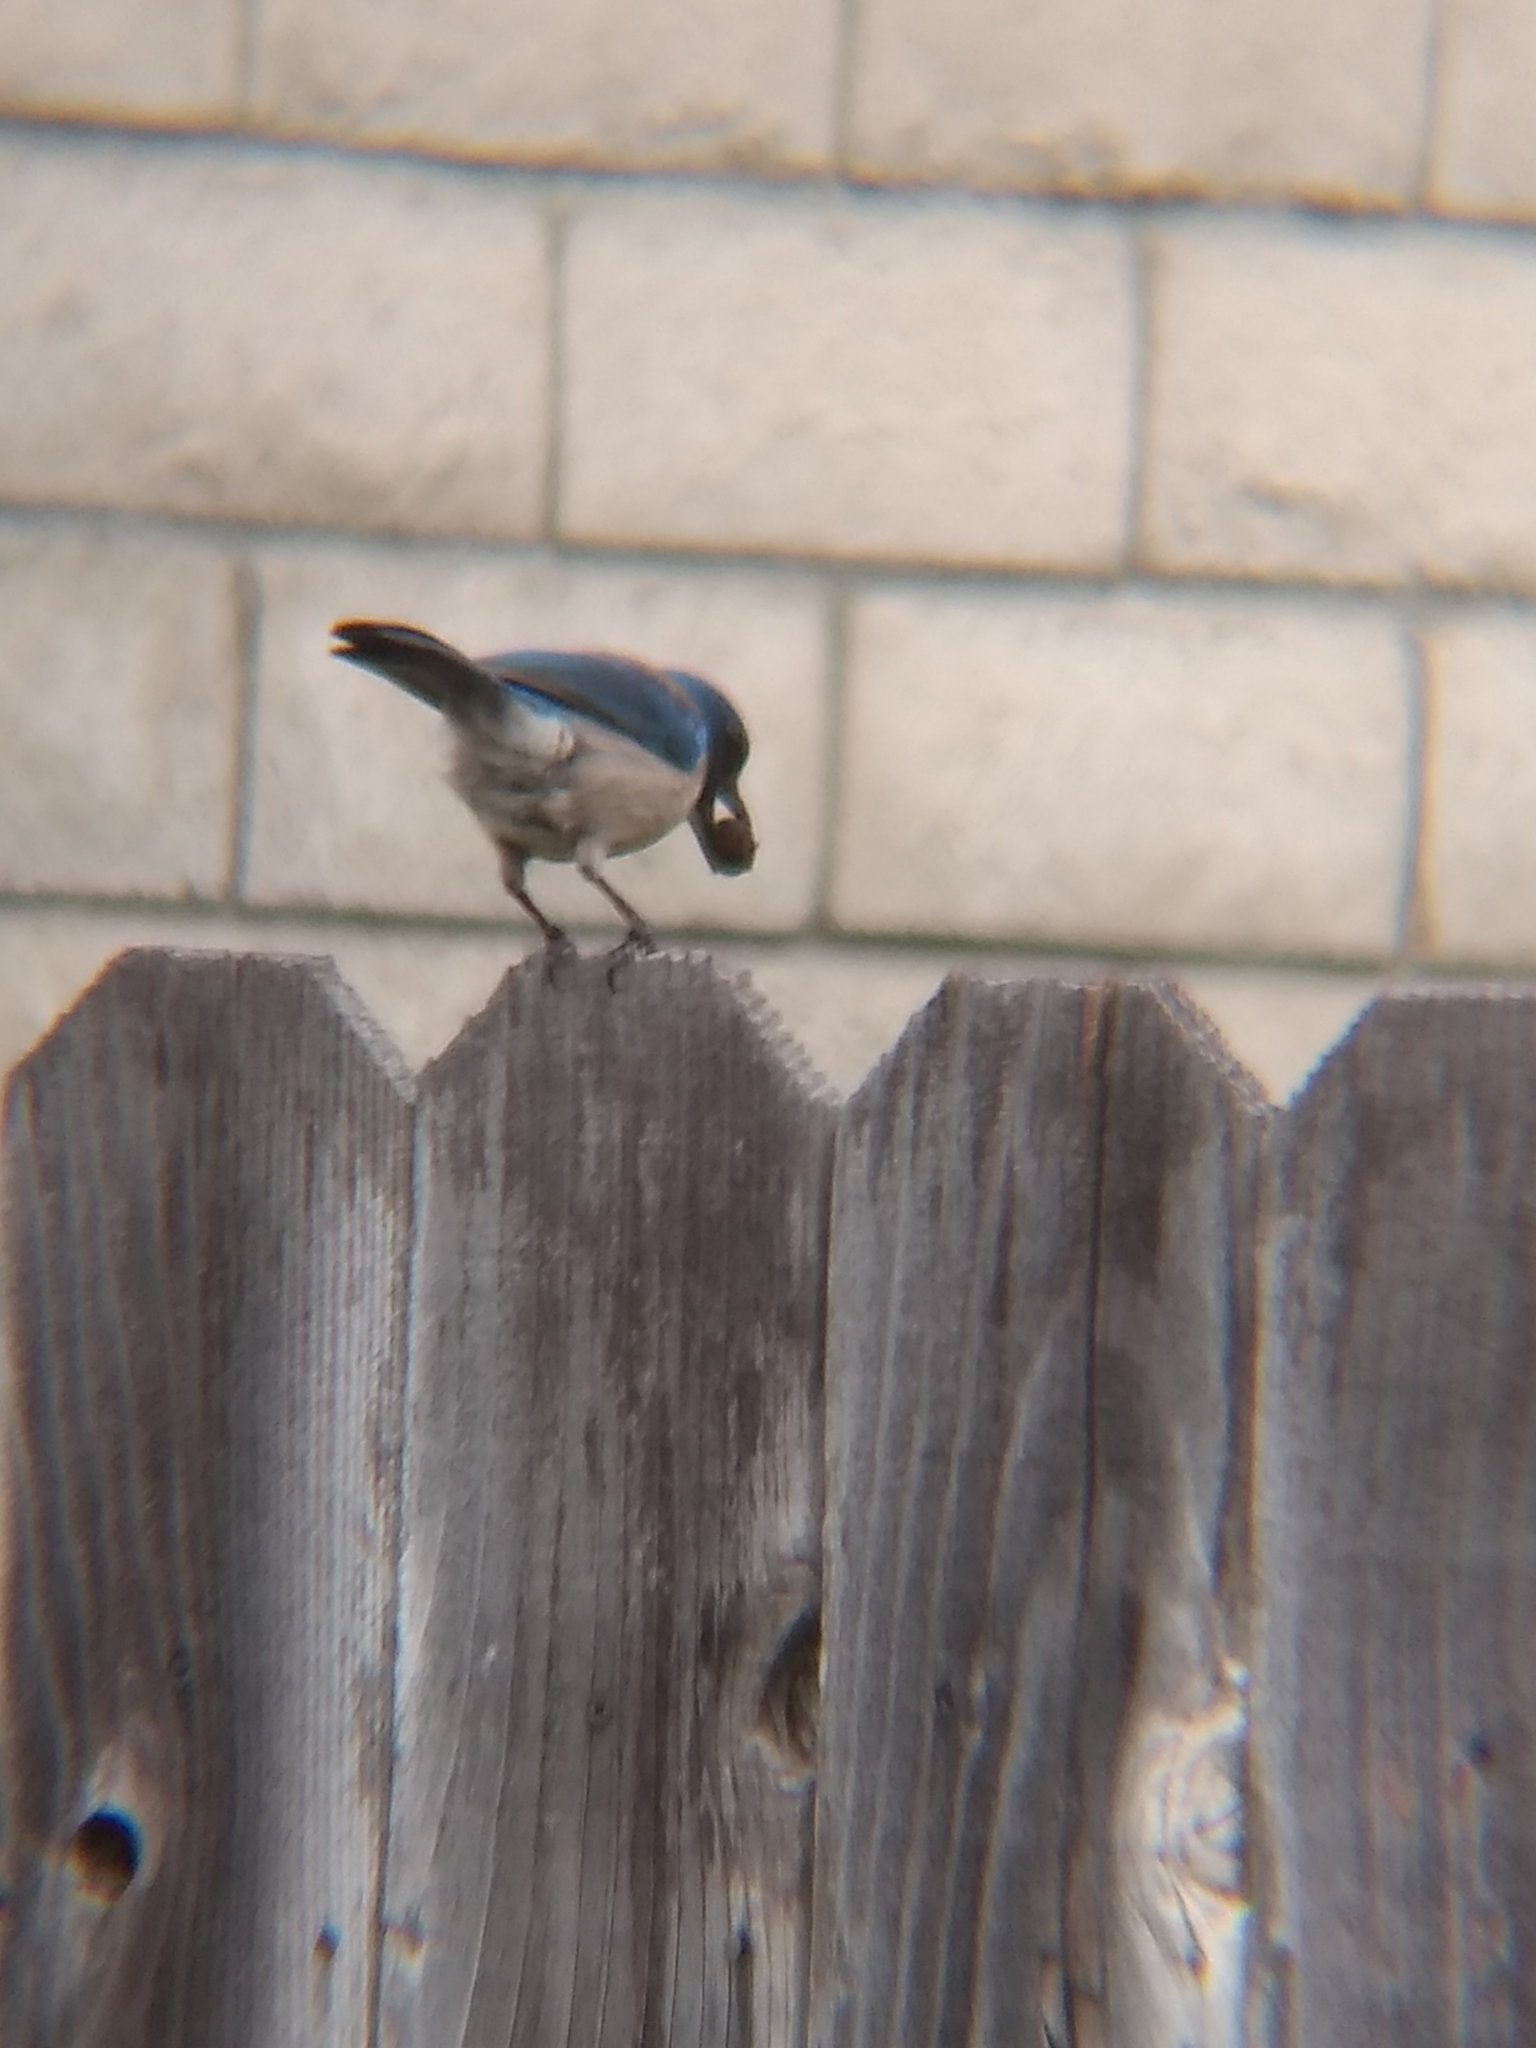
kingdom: Animalia
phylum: Chordata
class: Aves
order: Passeriformes
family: Corvidae
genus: Aphelocoma
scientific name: Aphelocoma californica
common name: California scrub-jay
